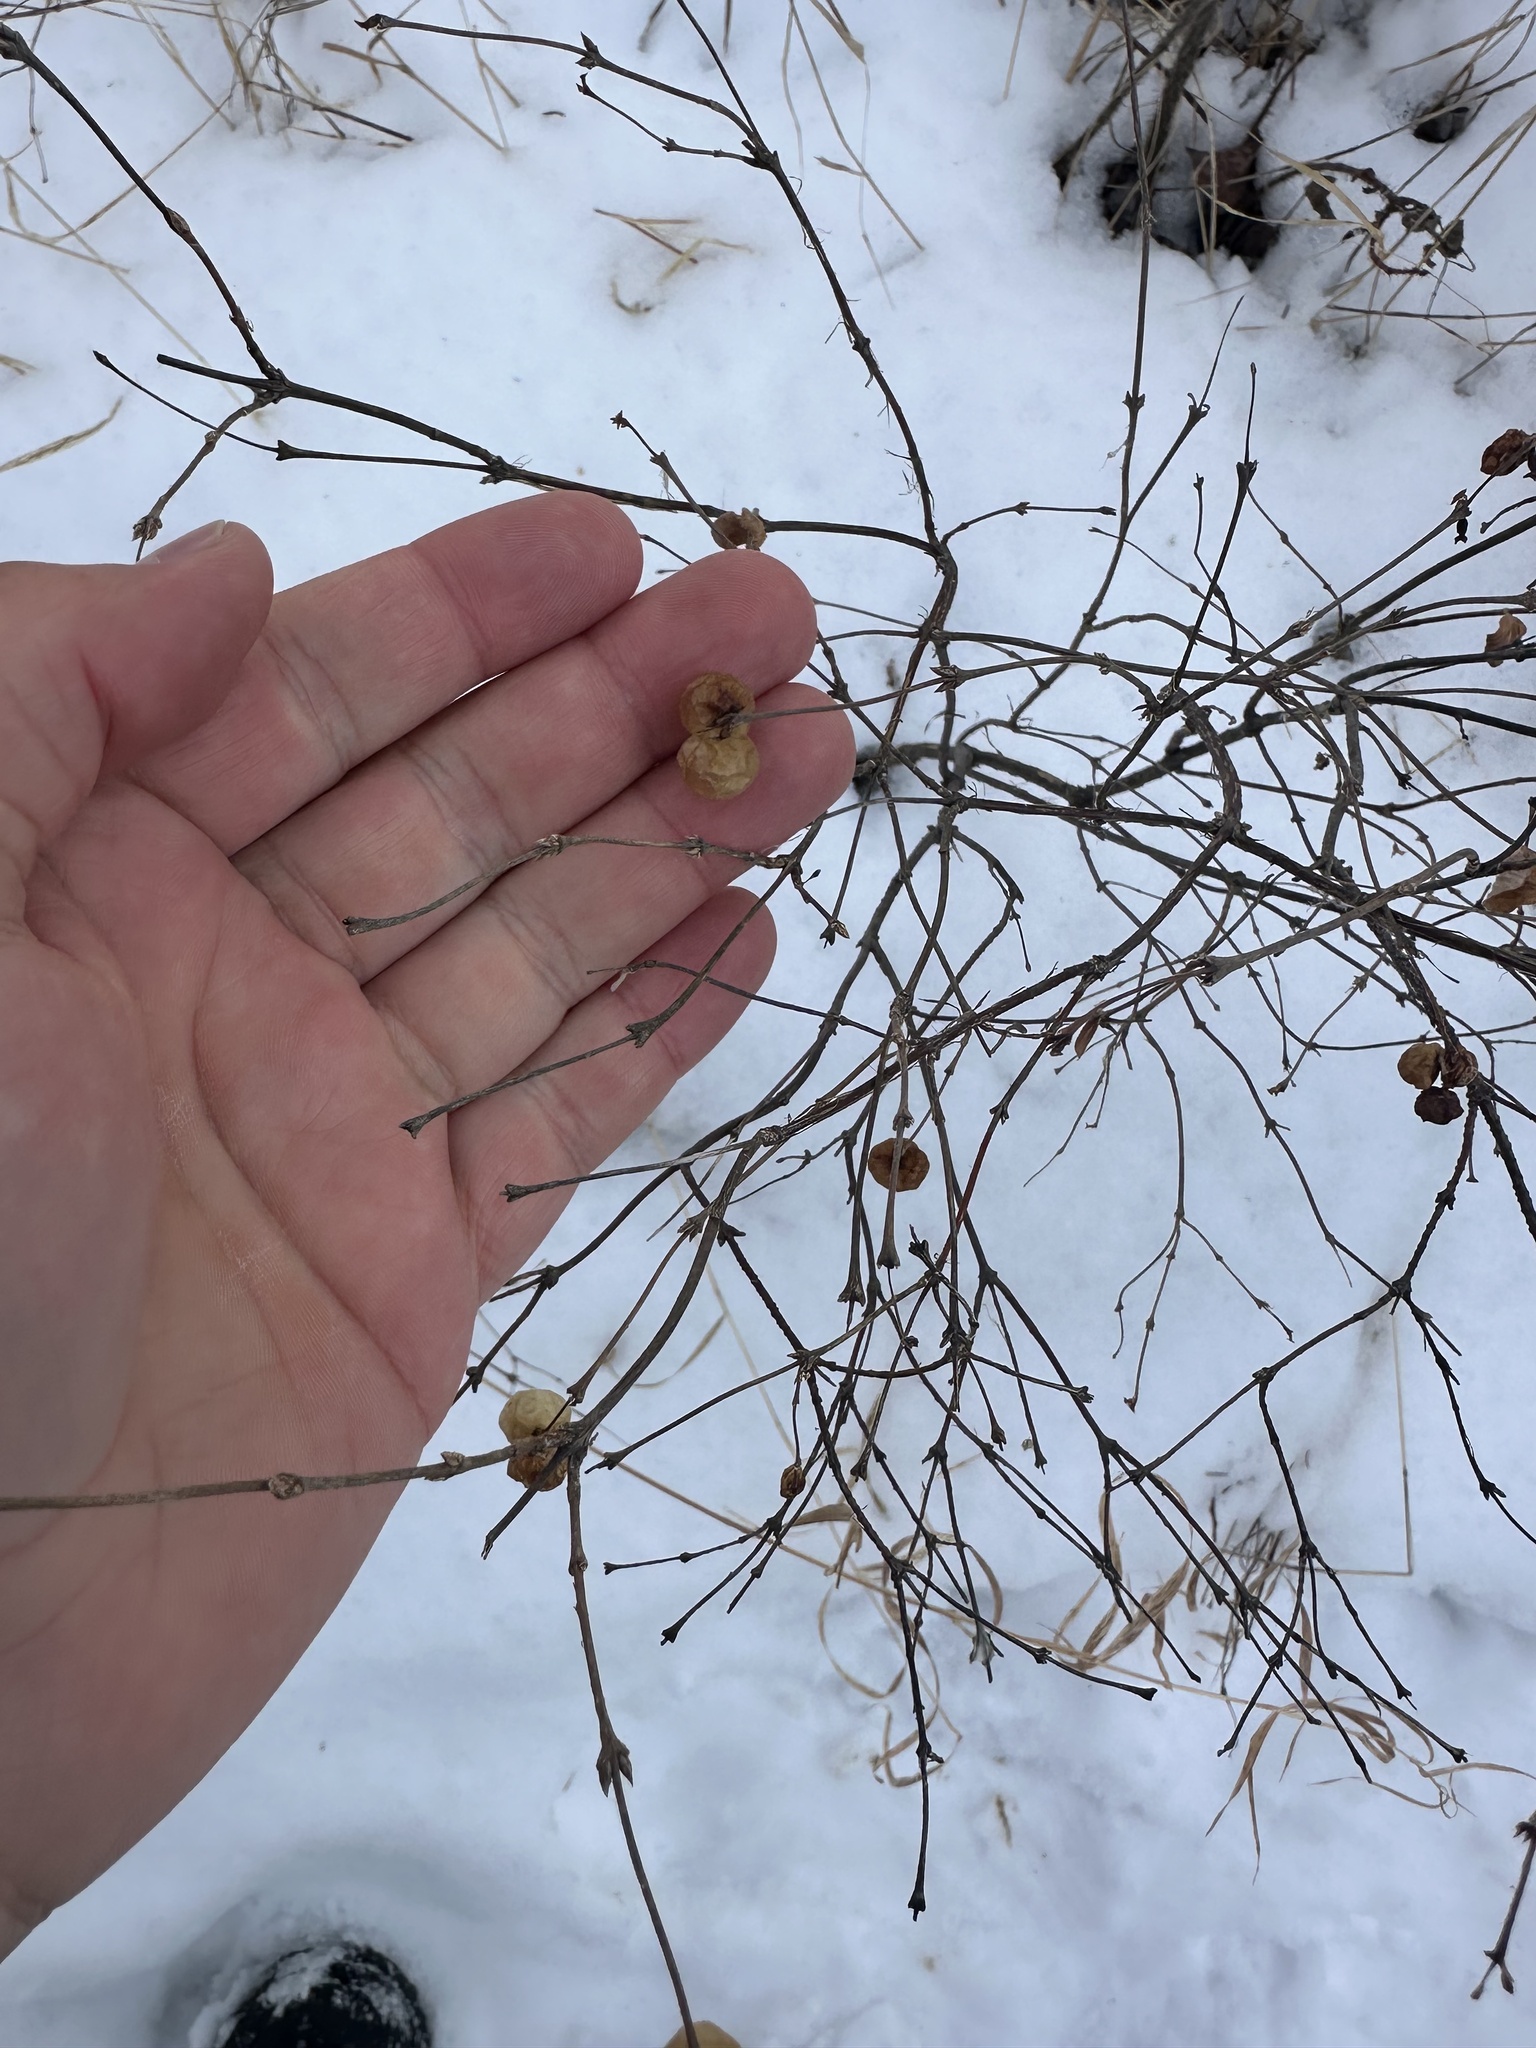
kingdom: Plantae
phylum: Tracheophyta
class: Magnoliopsida
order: Dipsacales
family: Caprifoliaceae
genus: Symphoricarpos
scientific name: Symphoricarpos albus
